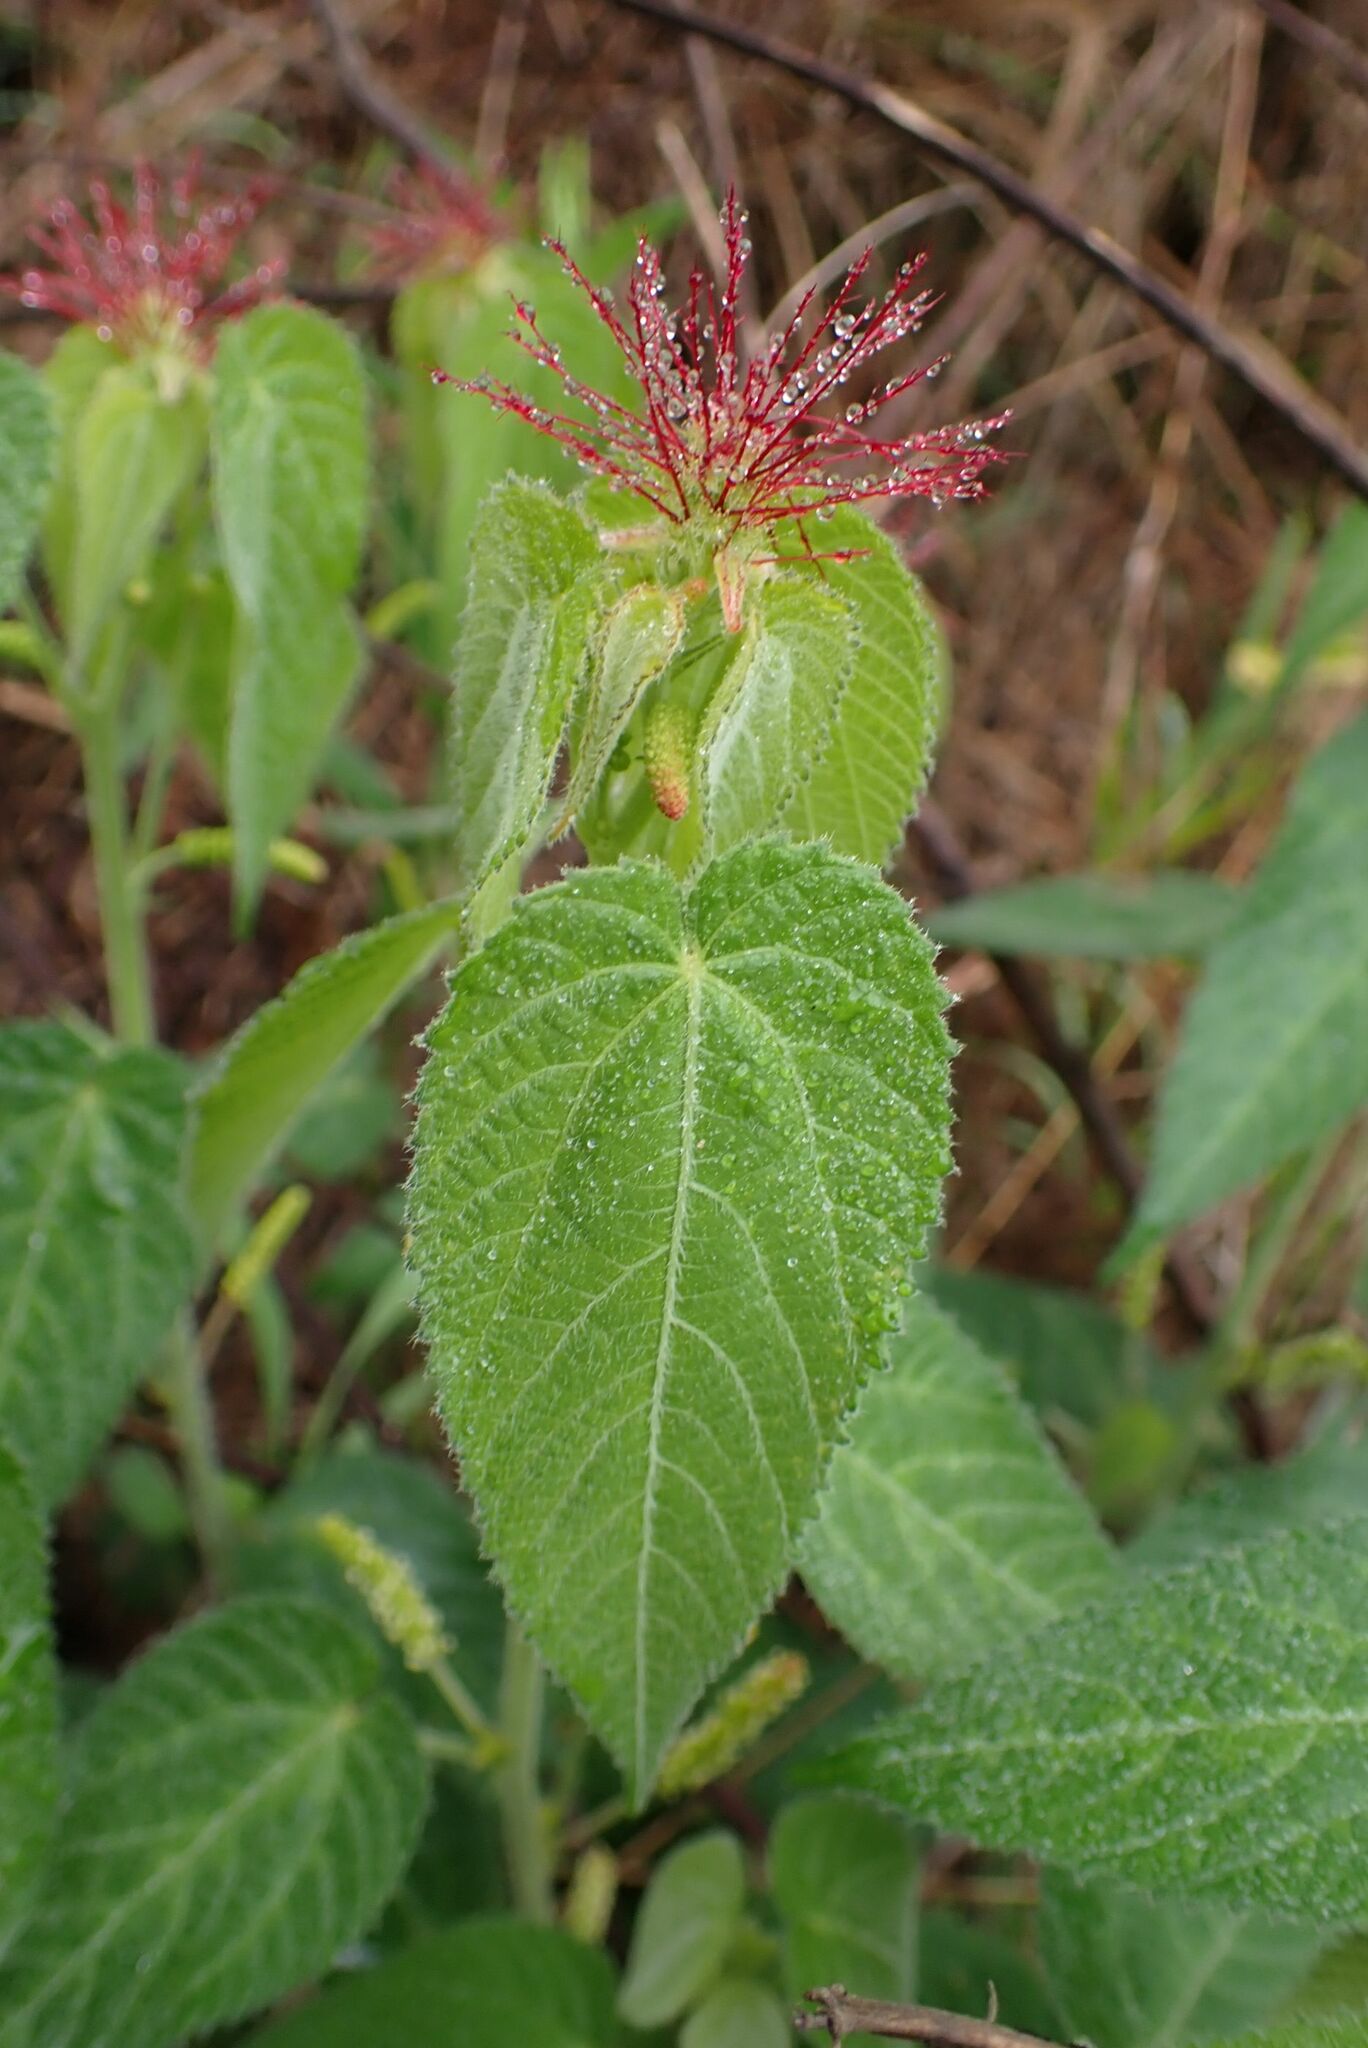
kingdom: Plantae
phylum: Tracheophyta
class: Magnoliopsida
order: Malpighiales
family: Euphorbiaceae
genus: Acalypha
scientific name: Acalypha petiolaris
